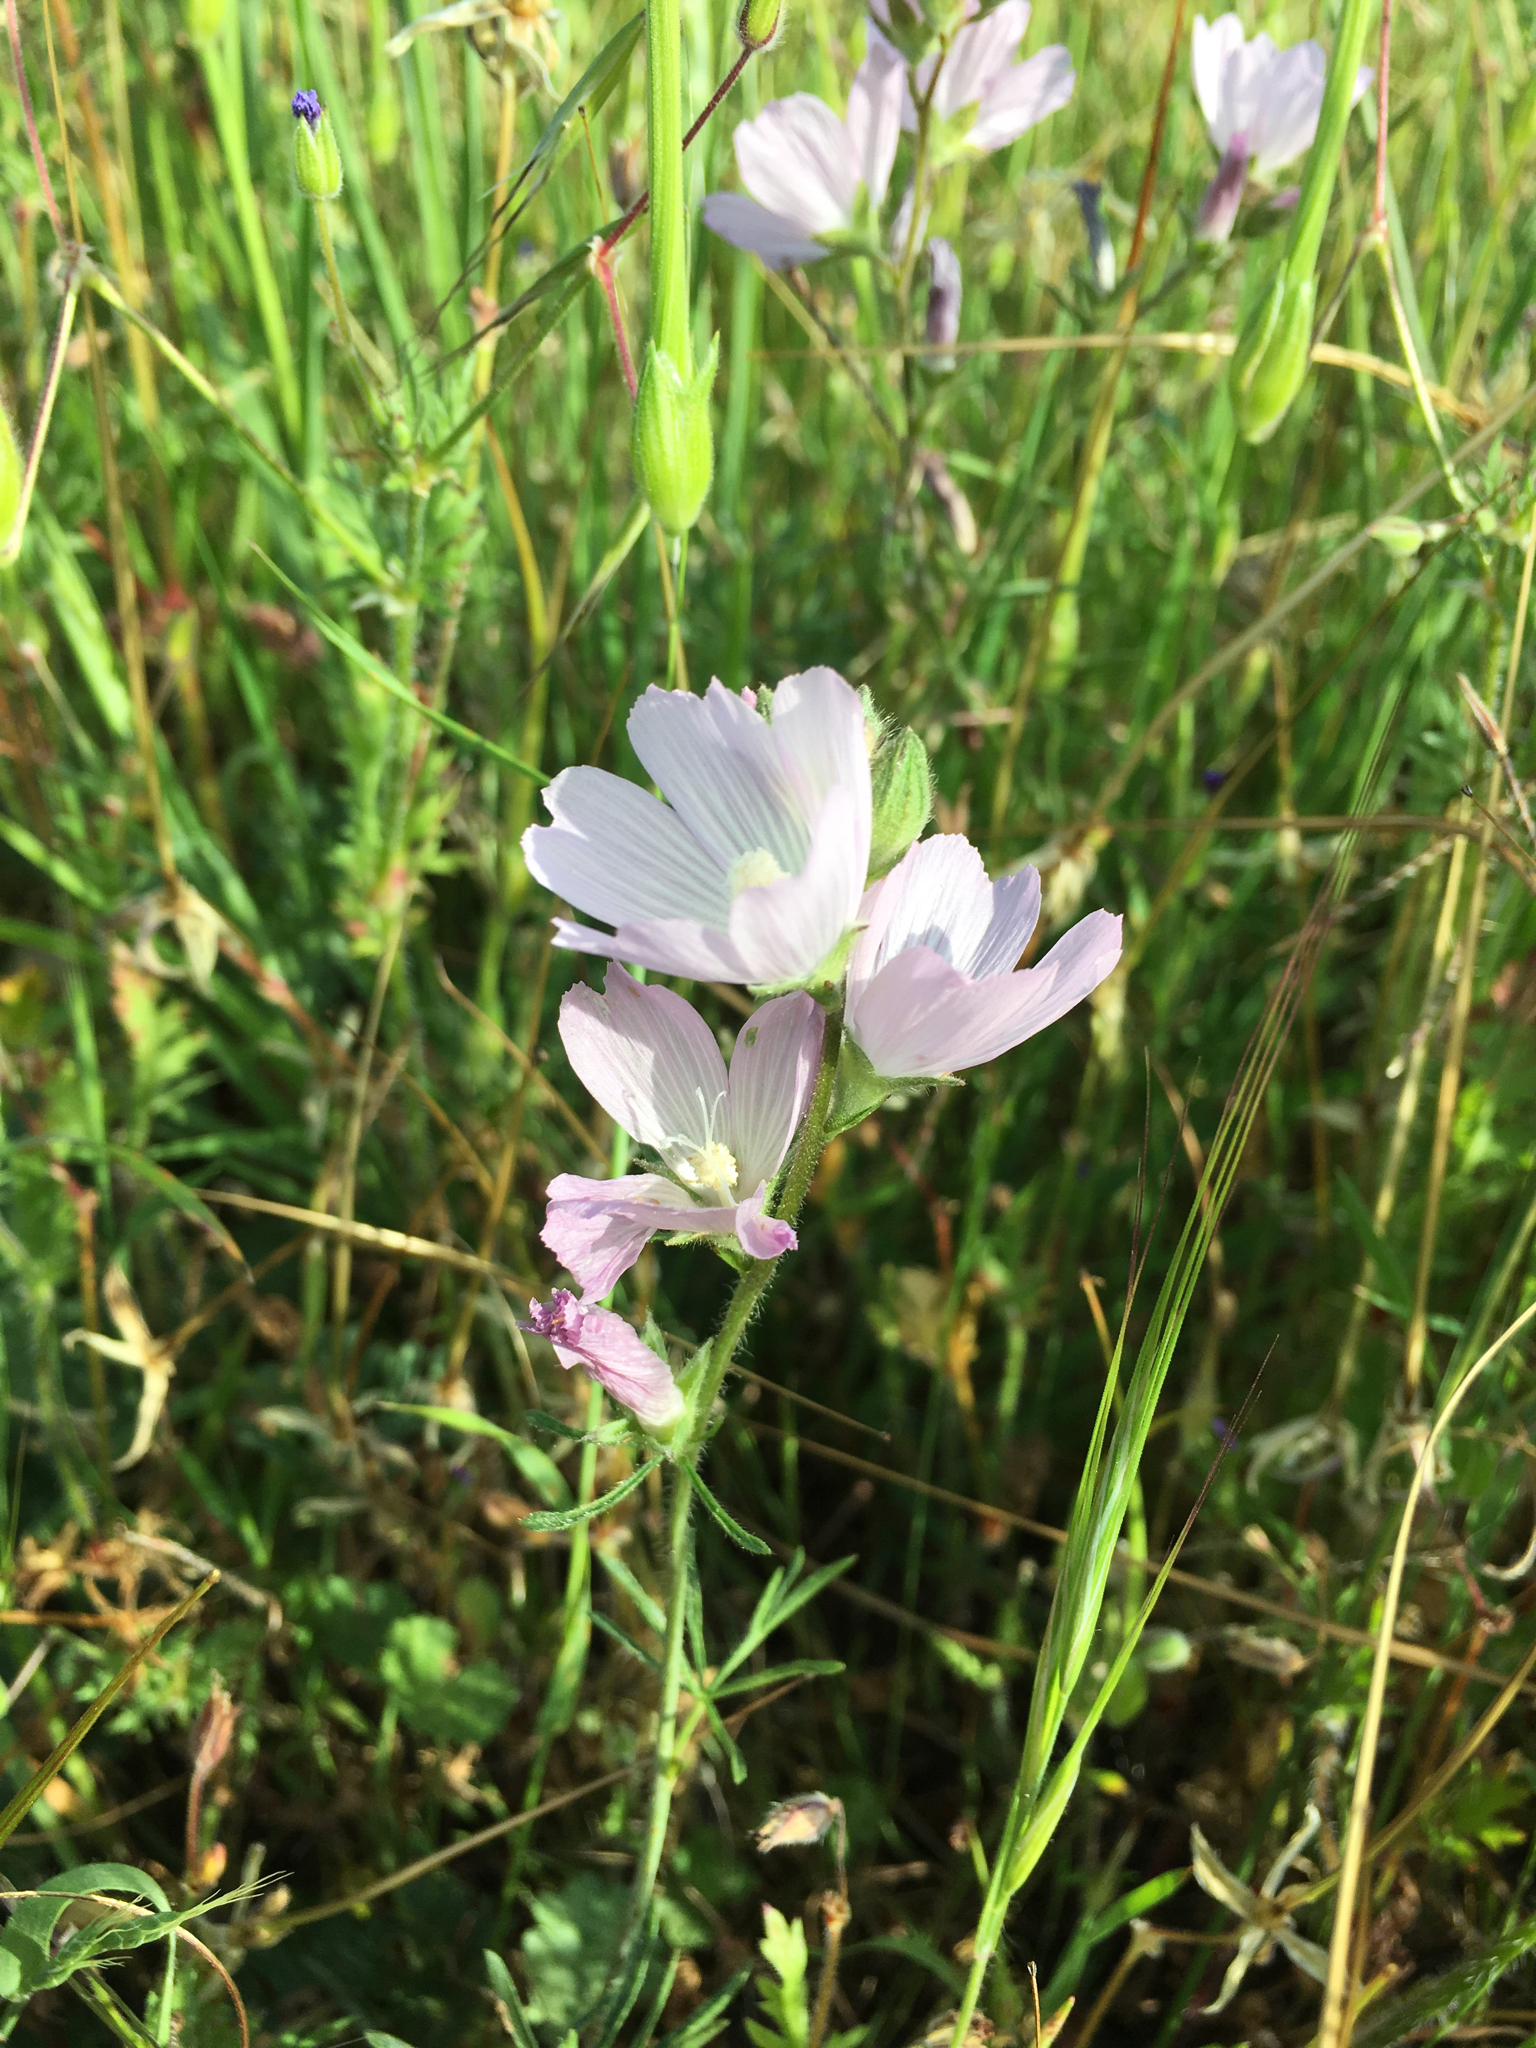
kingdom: Plantae
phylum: Tracheophyta
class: Magnoliopsida
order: Malvales
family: Malvaceae
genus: Sidalcea
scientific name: Sidalcea malviflora
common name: Greek mallow
